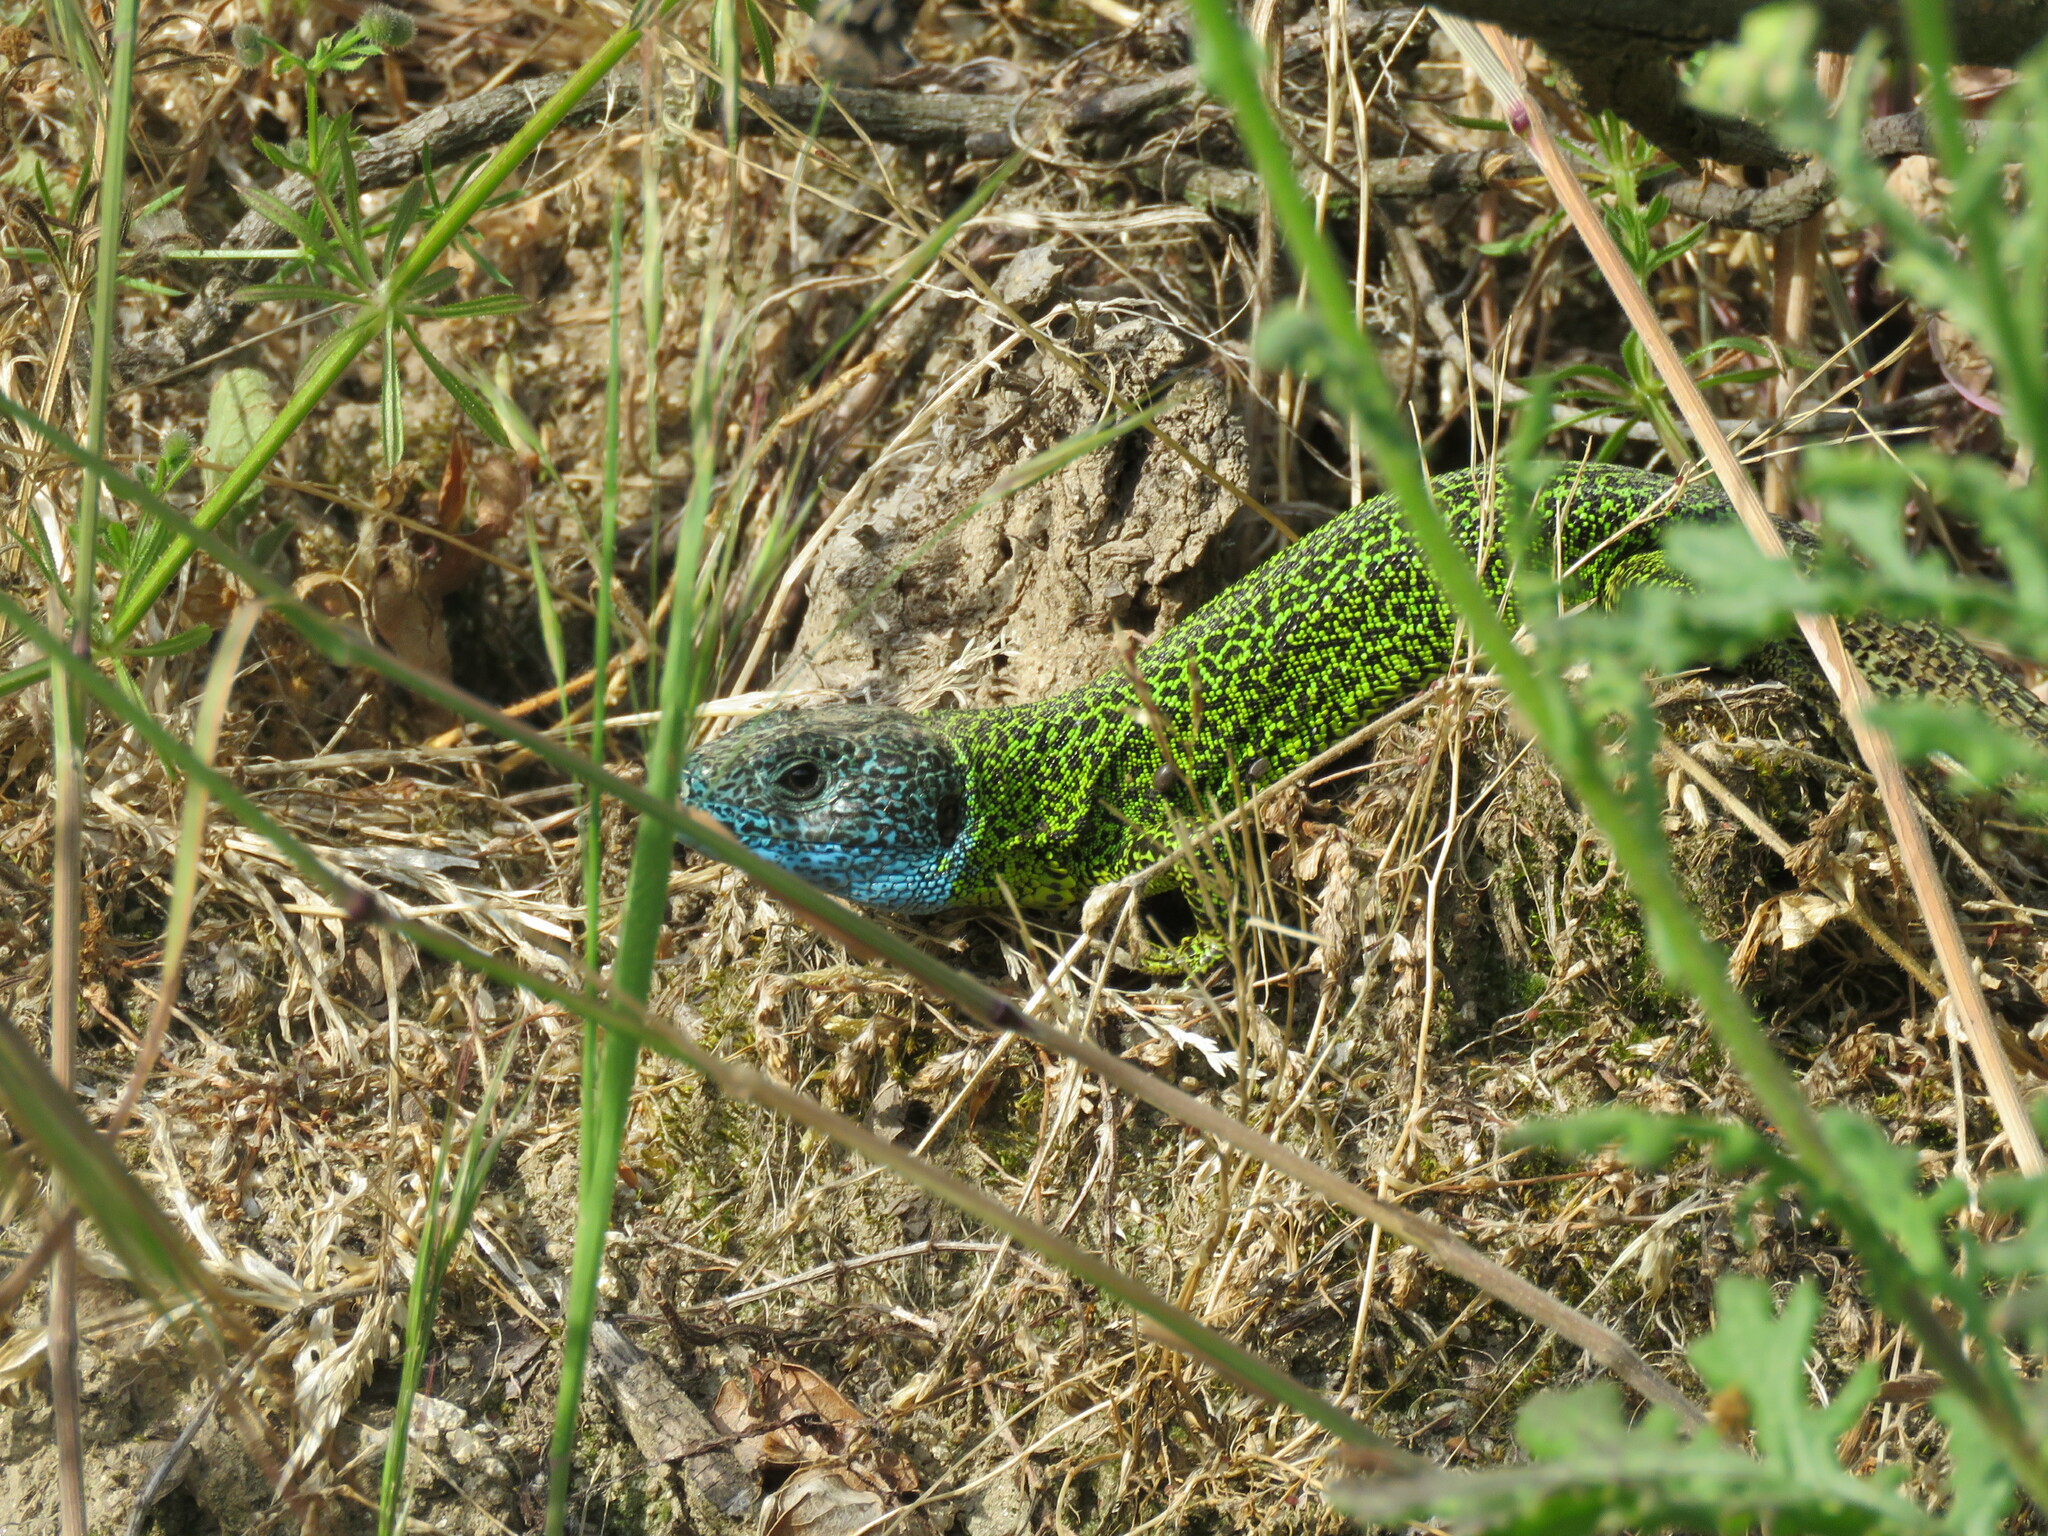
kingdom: Animalia
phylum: Chordata
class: Squamata
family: Lacertidae
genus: Lacerta
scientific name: Lacerta schreiberi
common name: Iberian emerald lizard
